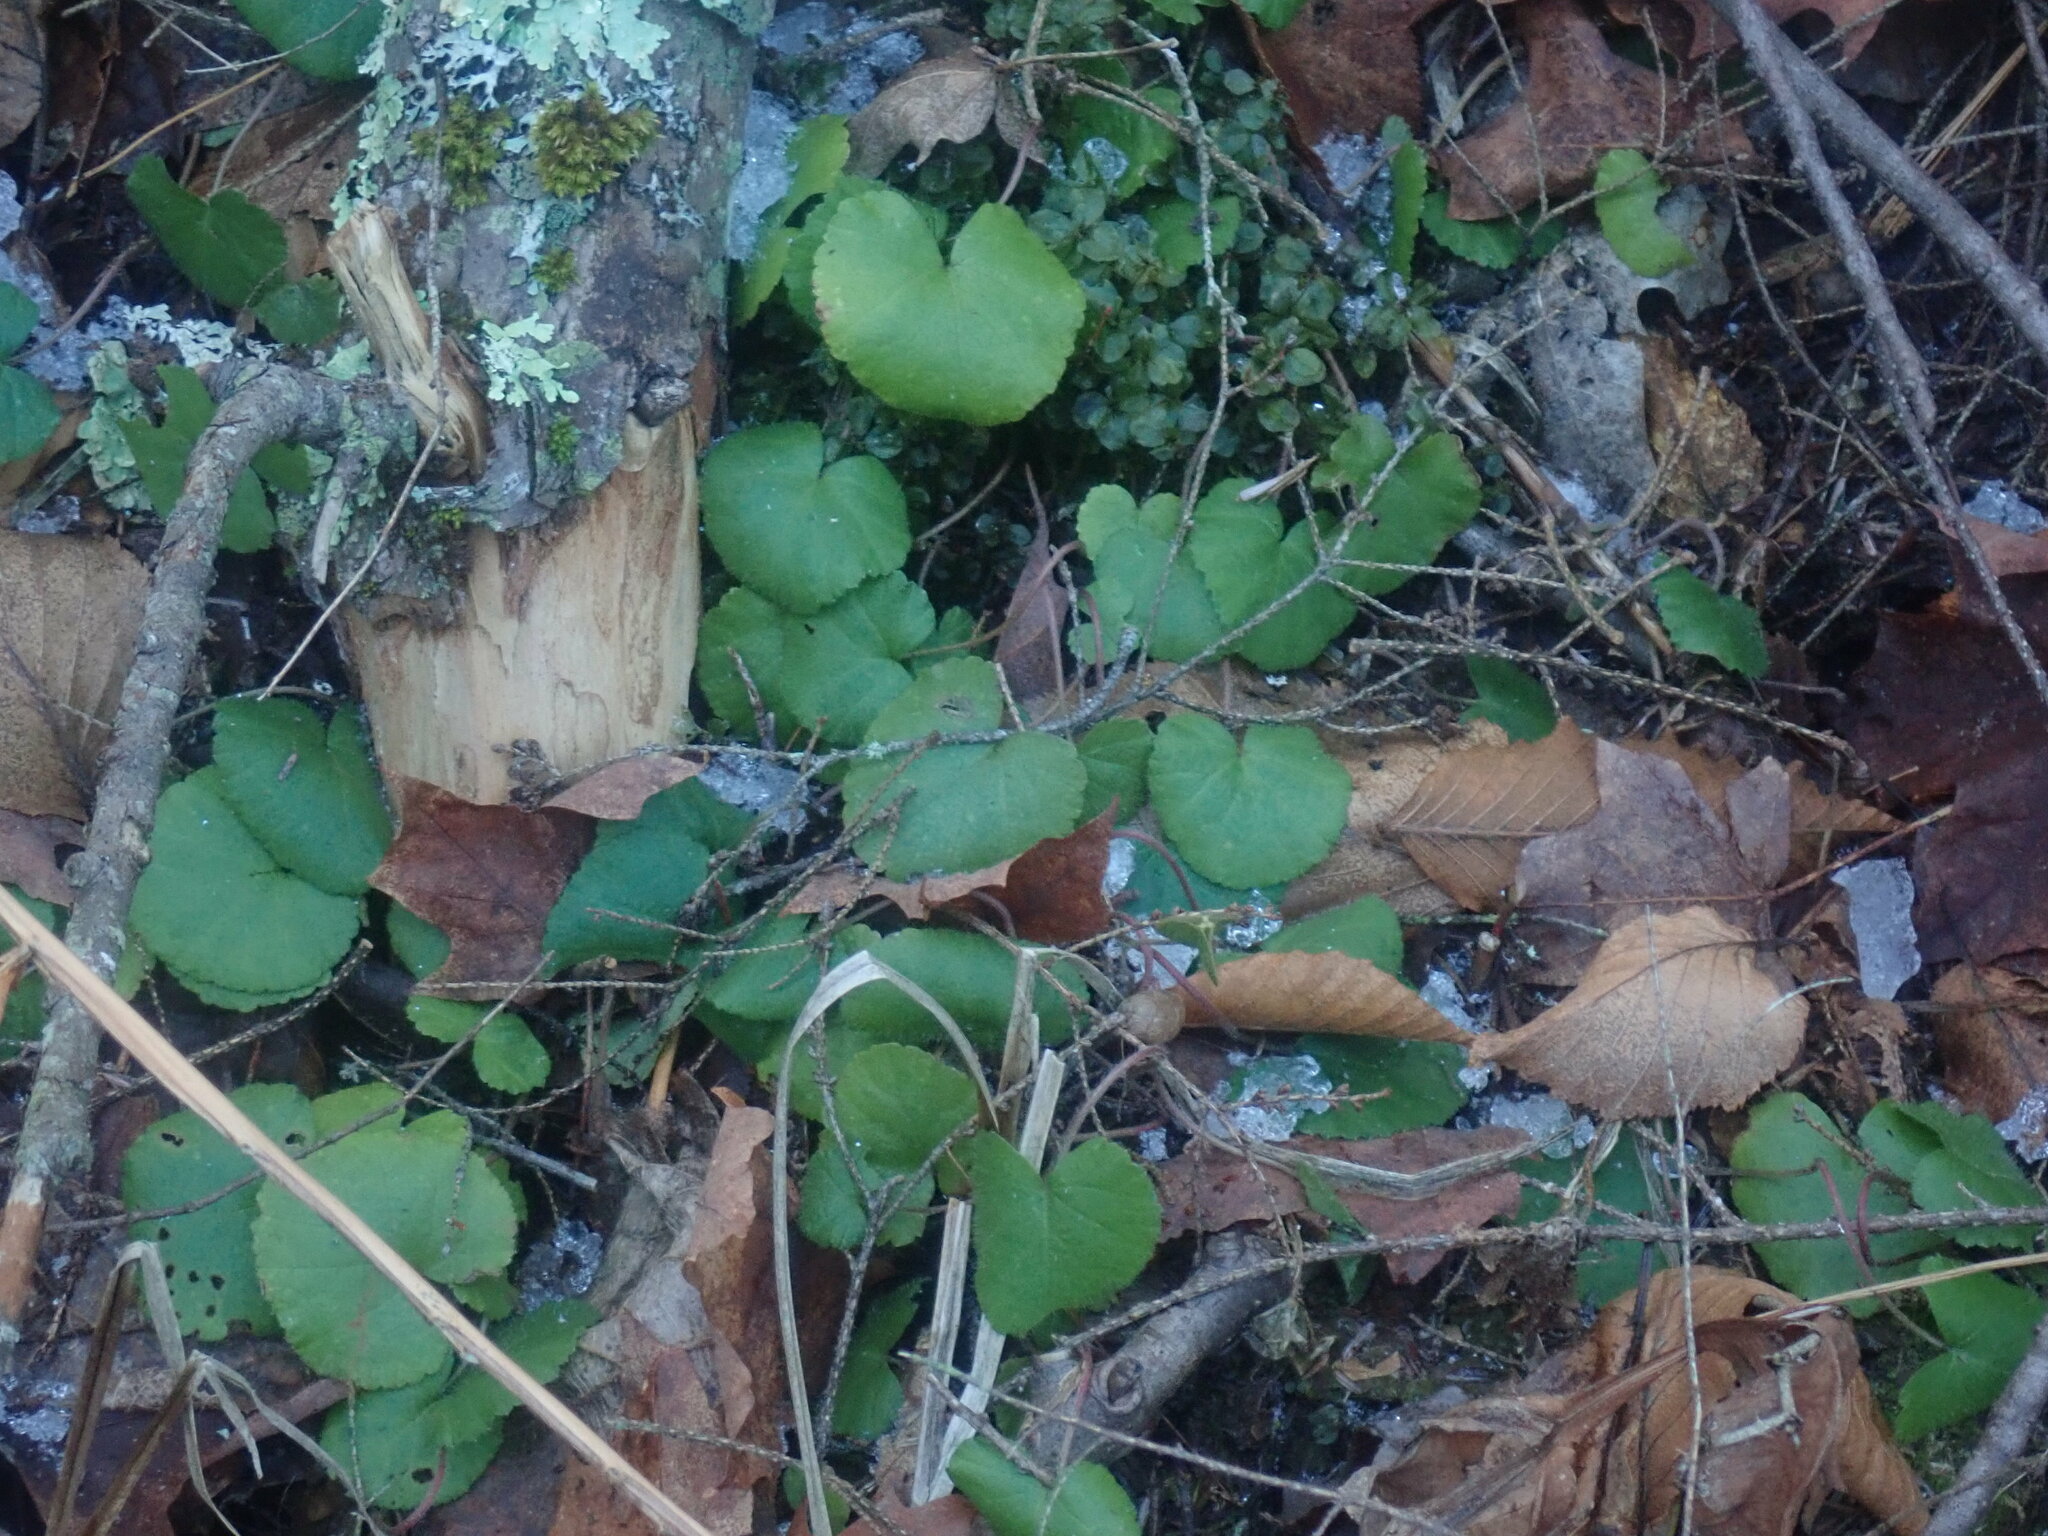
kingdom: Plantae
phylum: Tracheophyta
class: Magnoliopsida
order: Rosales
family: Rosaceae
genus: Dalibarda
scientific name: Dalibarda repens
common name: Dewdrop
